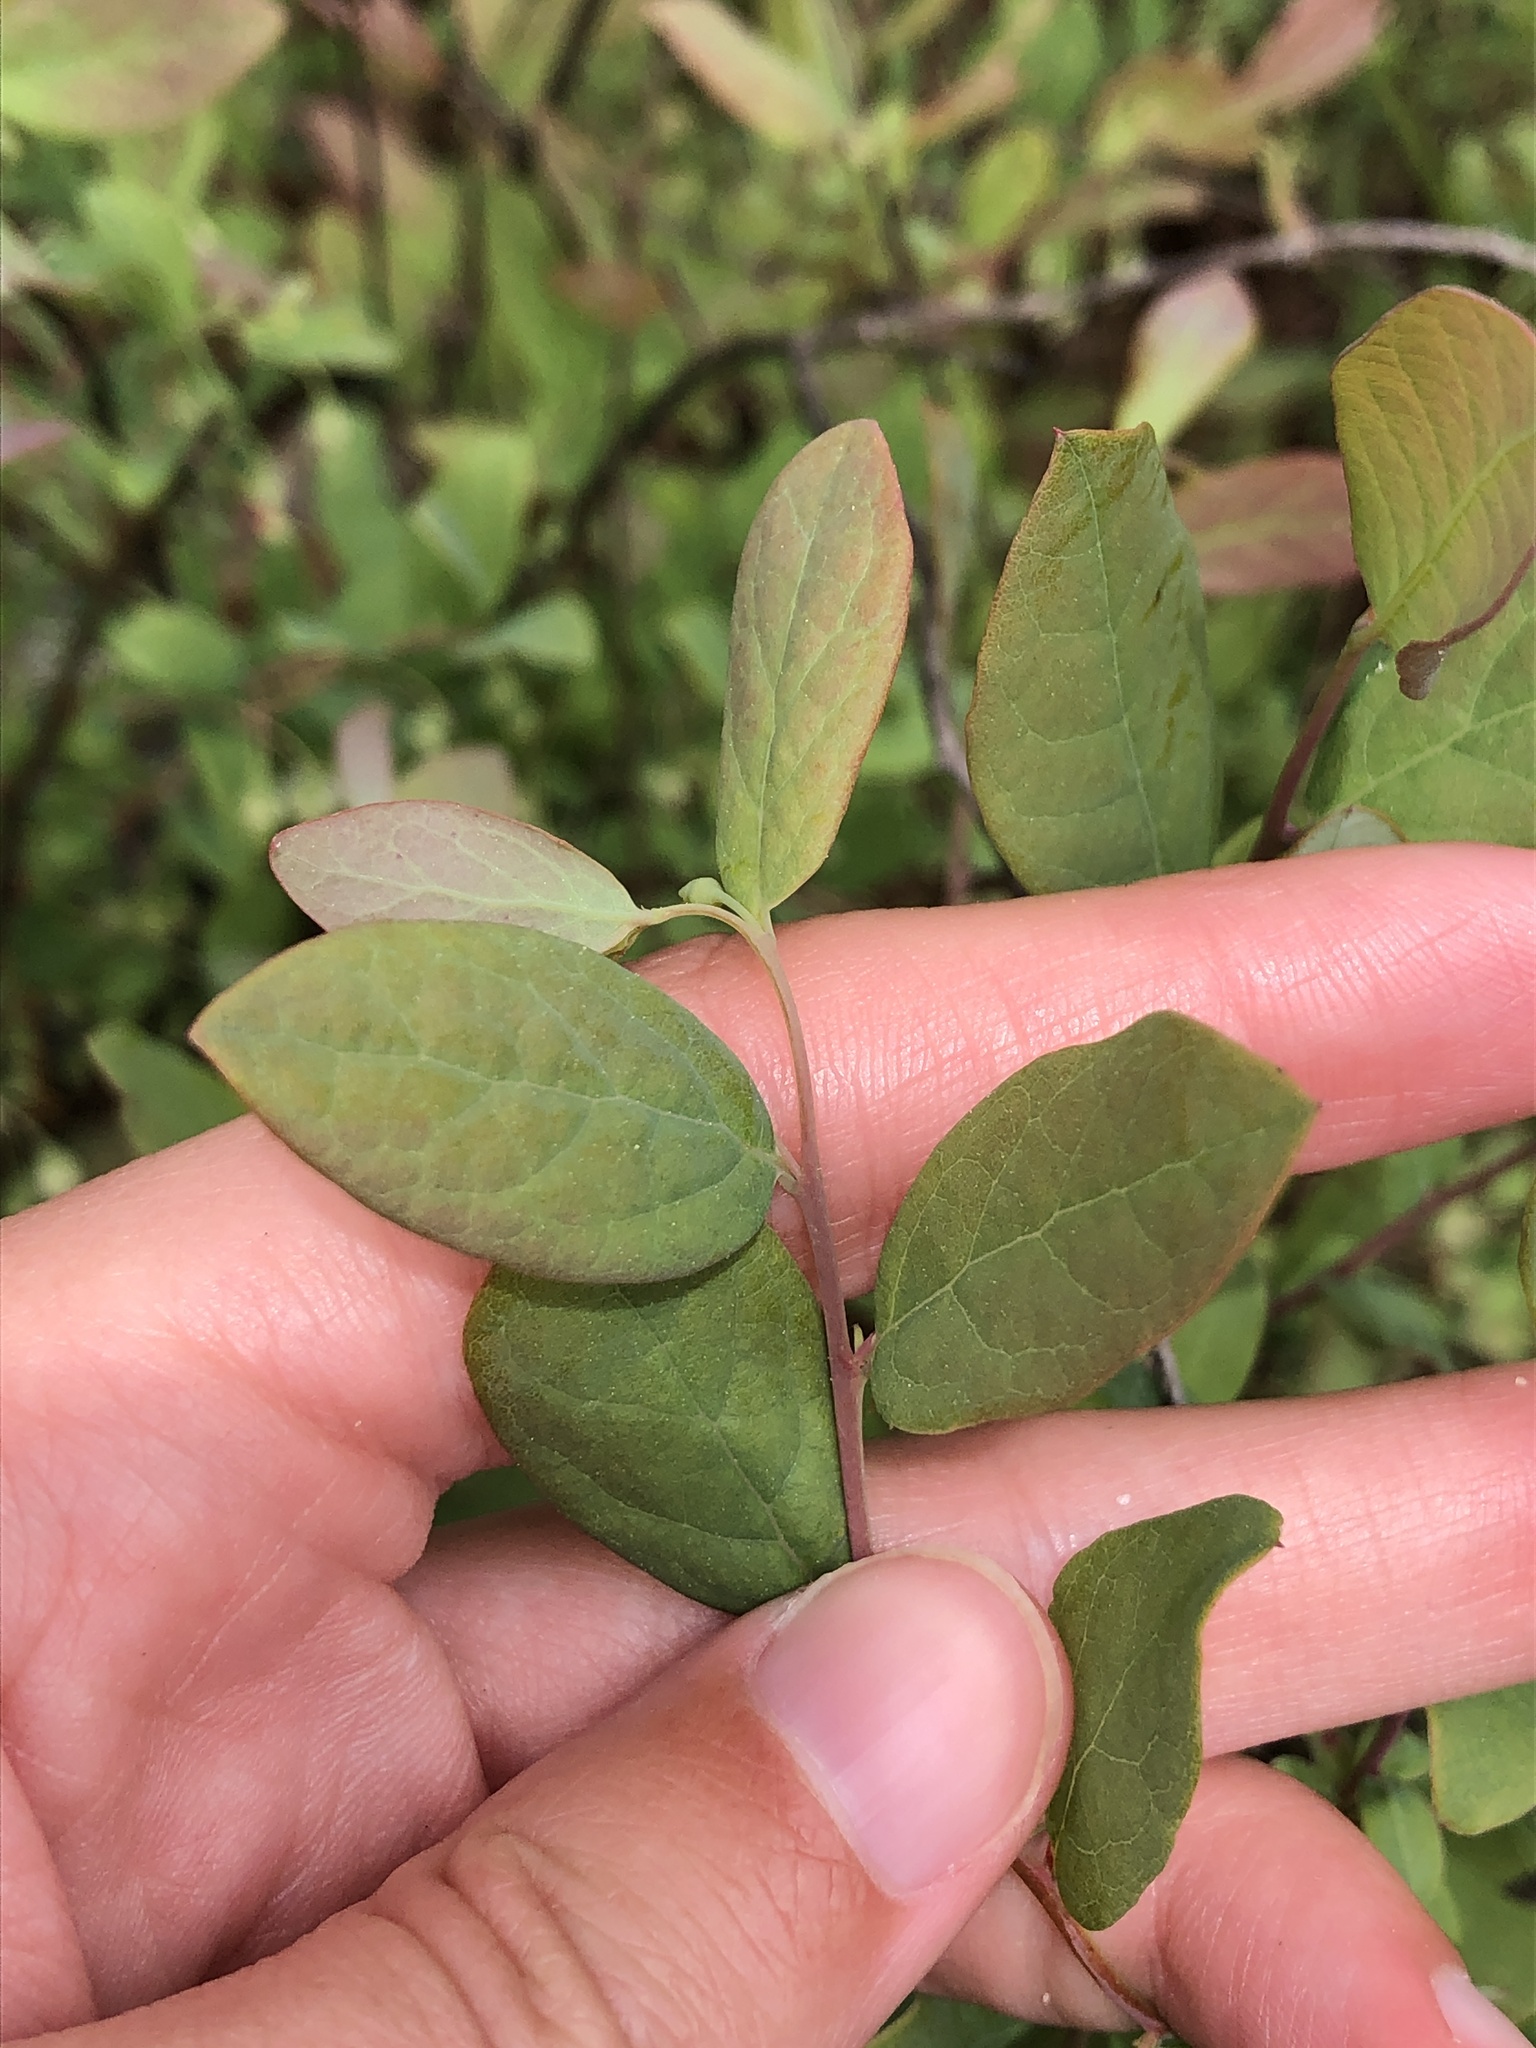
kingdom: Plantae
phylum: Tracheophyta
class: Magnoliopsida
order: Ericales
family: Ericaceae
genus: Vaccinium
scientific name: Vaccinium stamineum
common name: Deerberry
